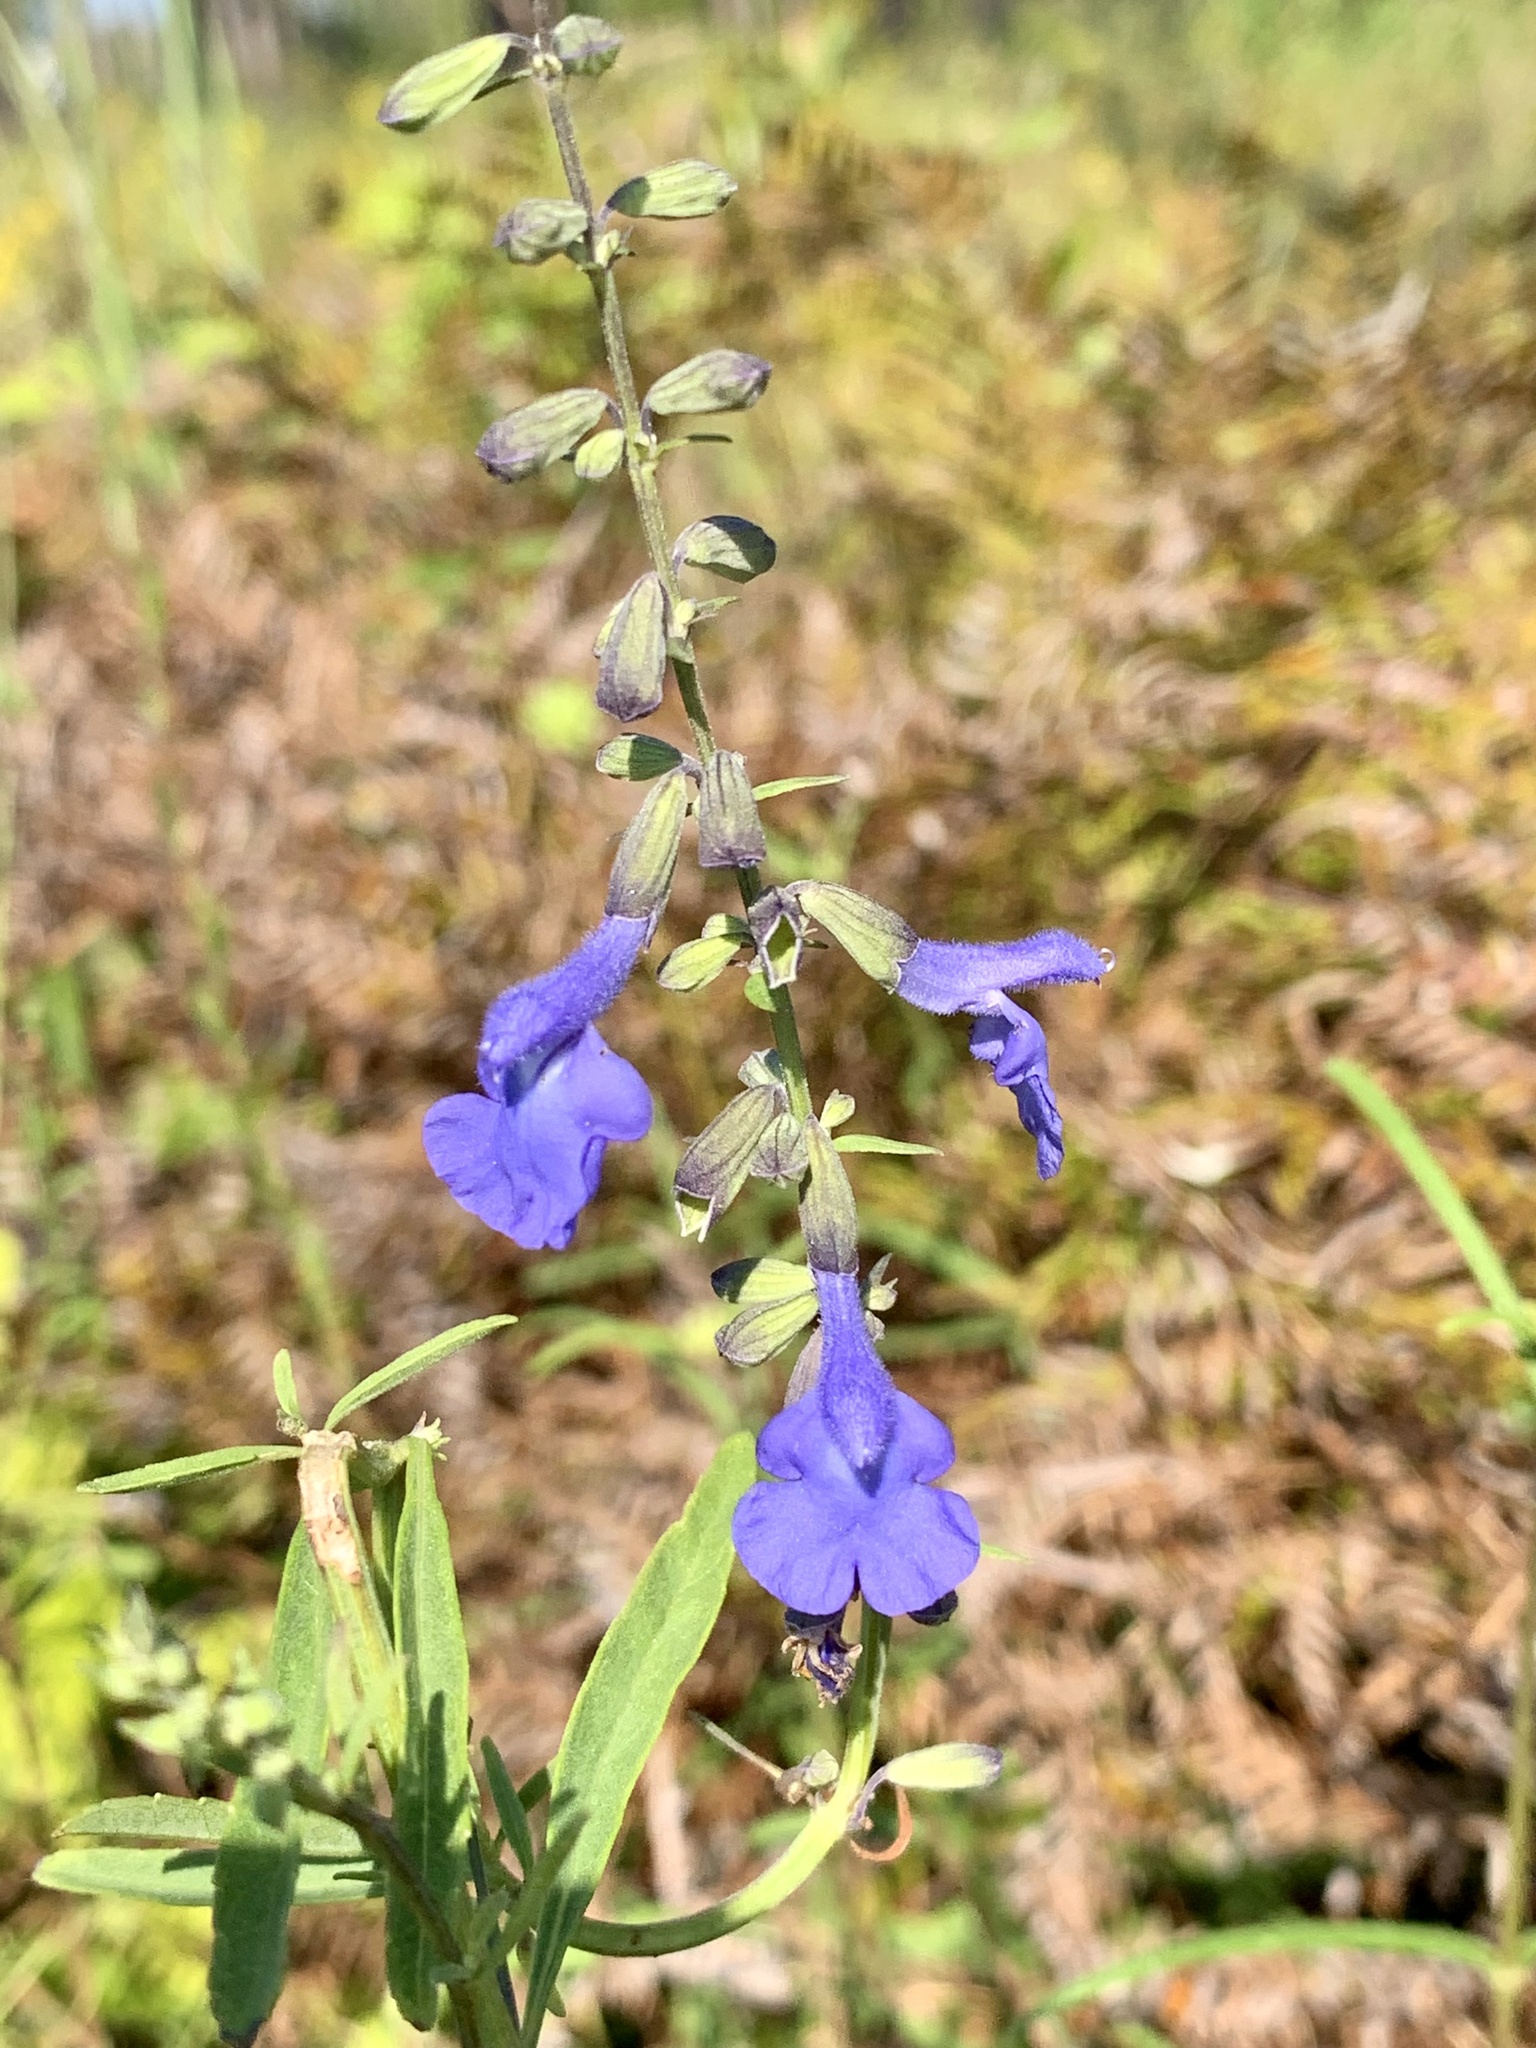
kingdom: Plantae
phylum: Tracheophyta
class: Magnoliopsida
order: Lamiales
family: Lamiaceae
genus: Salvia
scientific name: Salvia azurea
